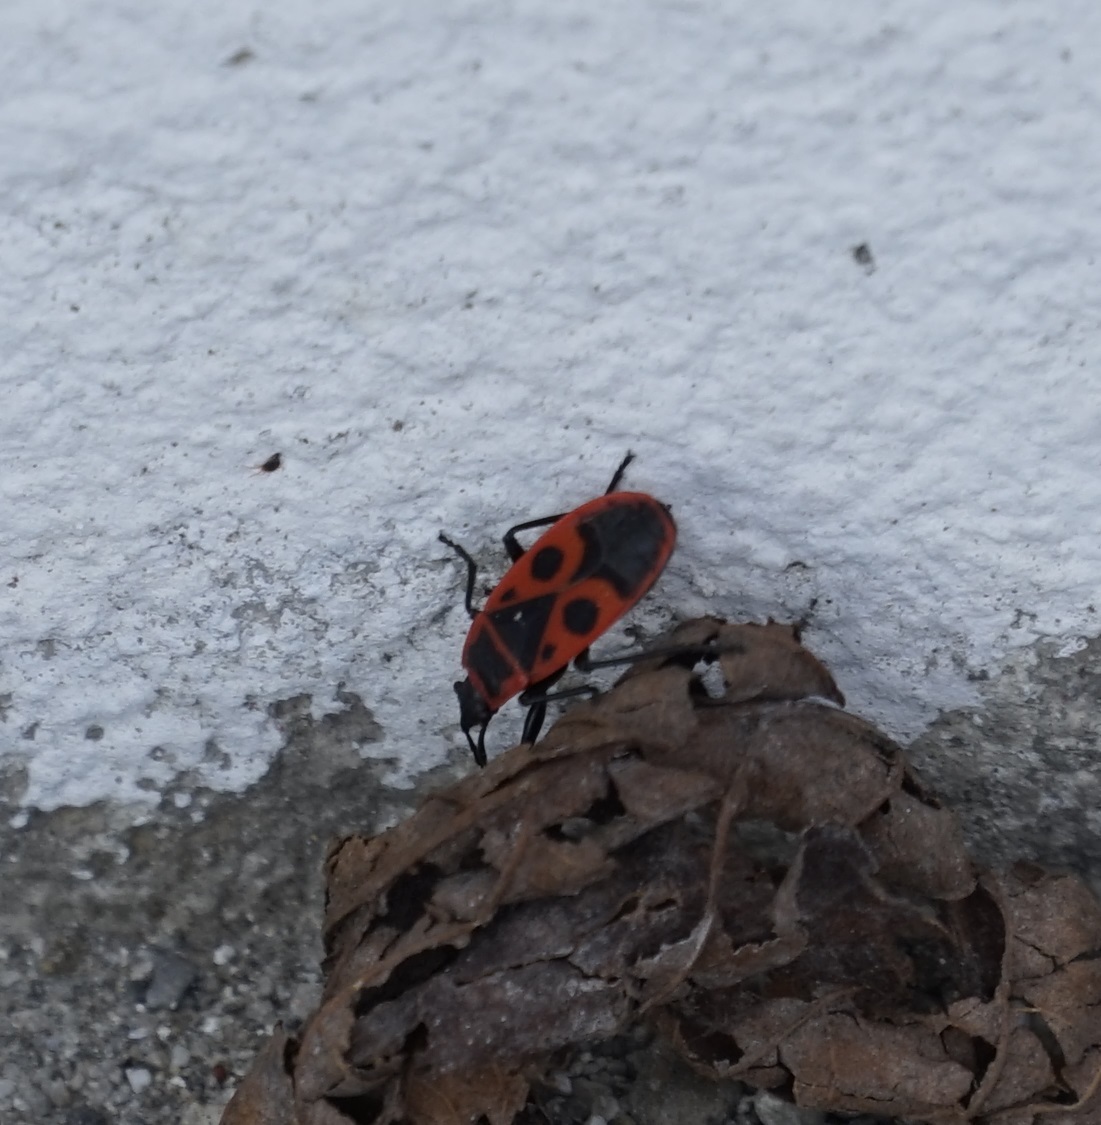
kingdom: Animalia
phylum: Arthropoda
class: Insecta
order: Hemiptera
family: Pyrrhocoridae
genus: Pyrrhocoris
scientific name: Pyrrhocoris apterus
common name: Firebug
